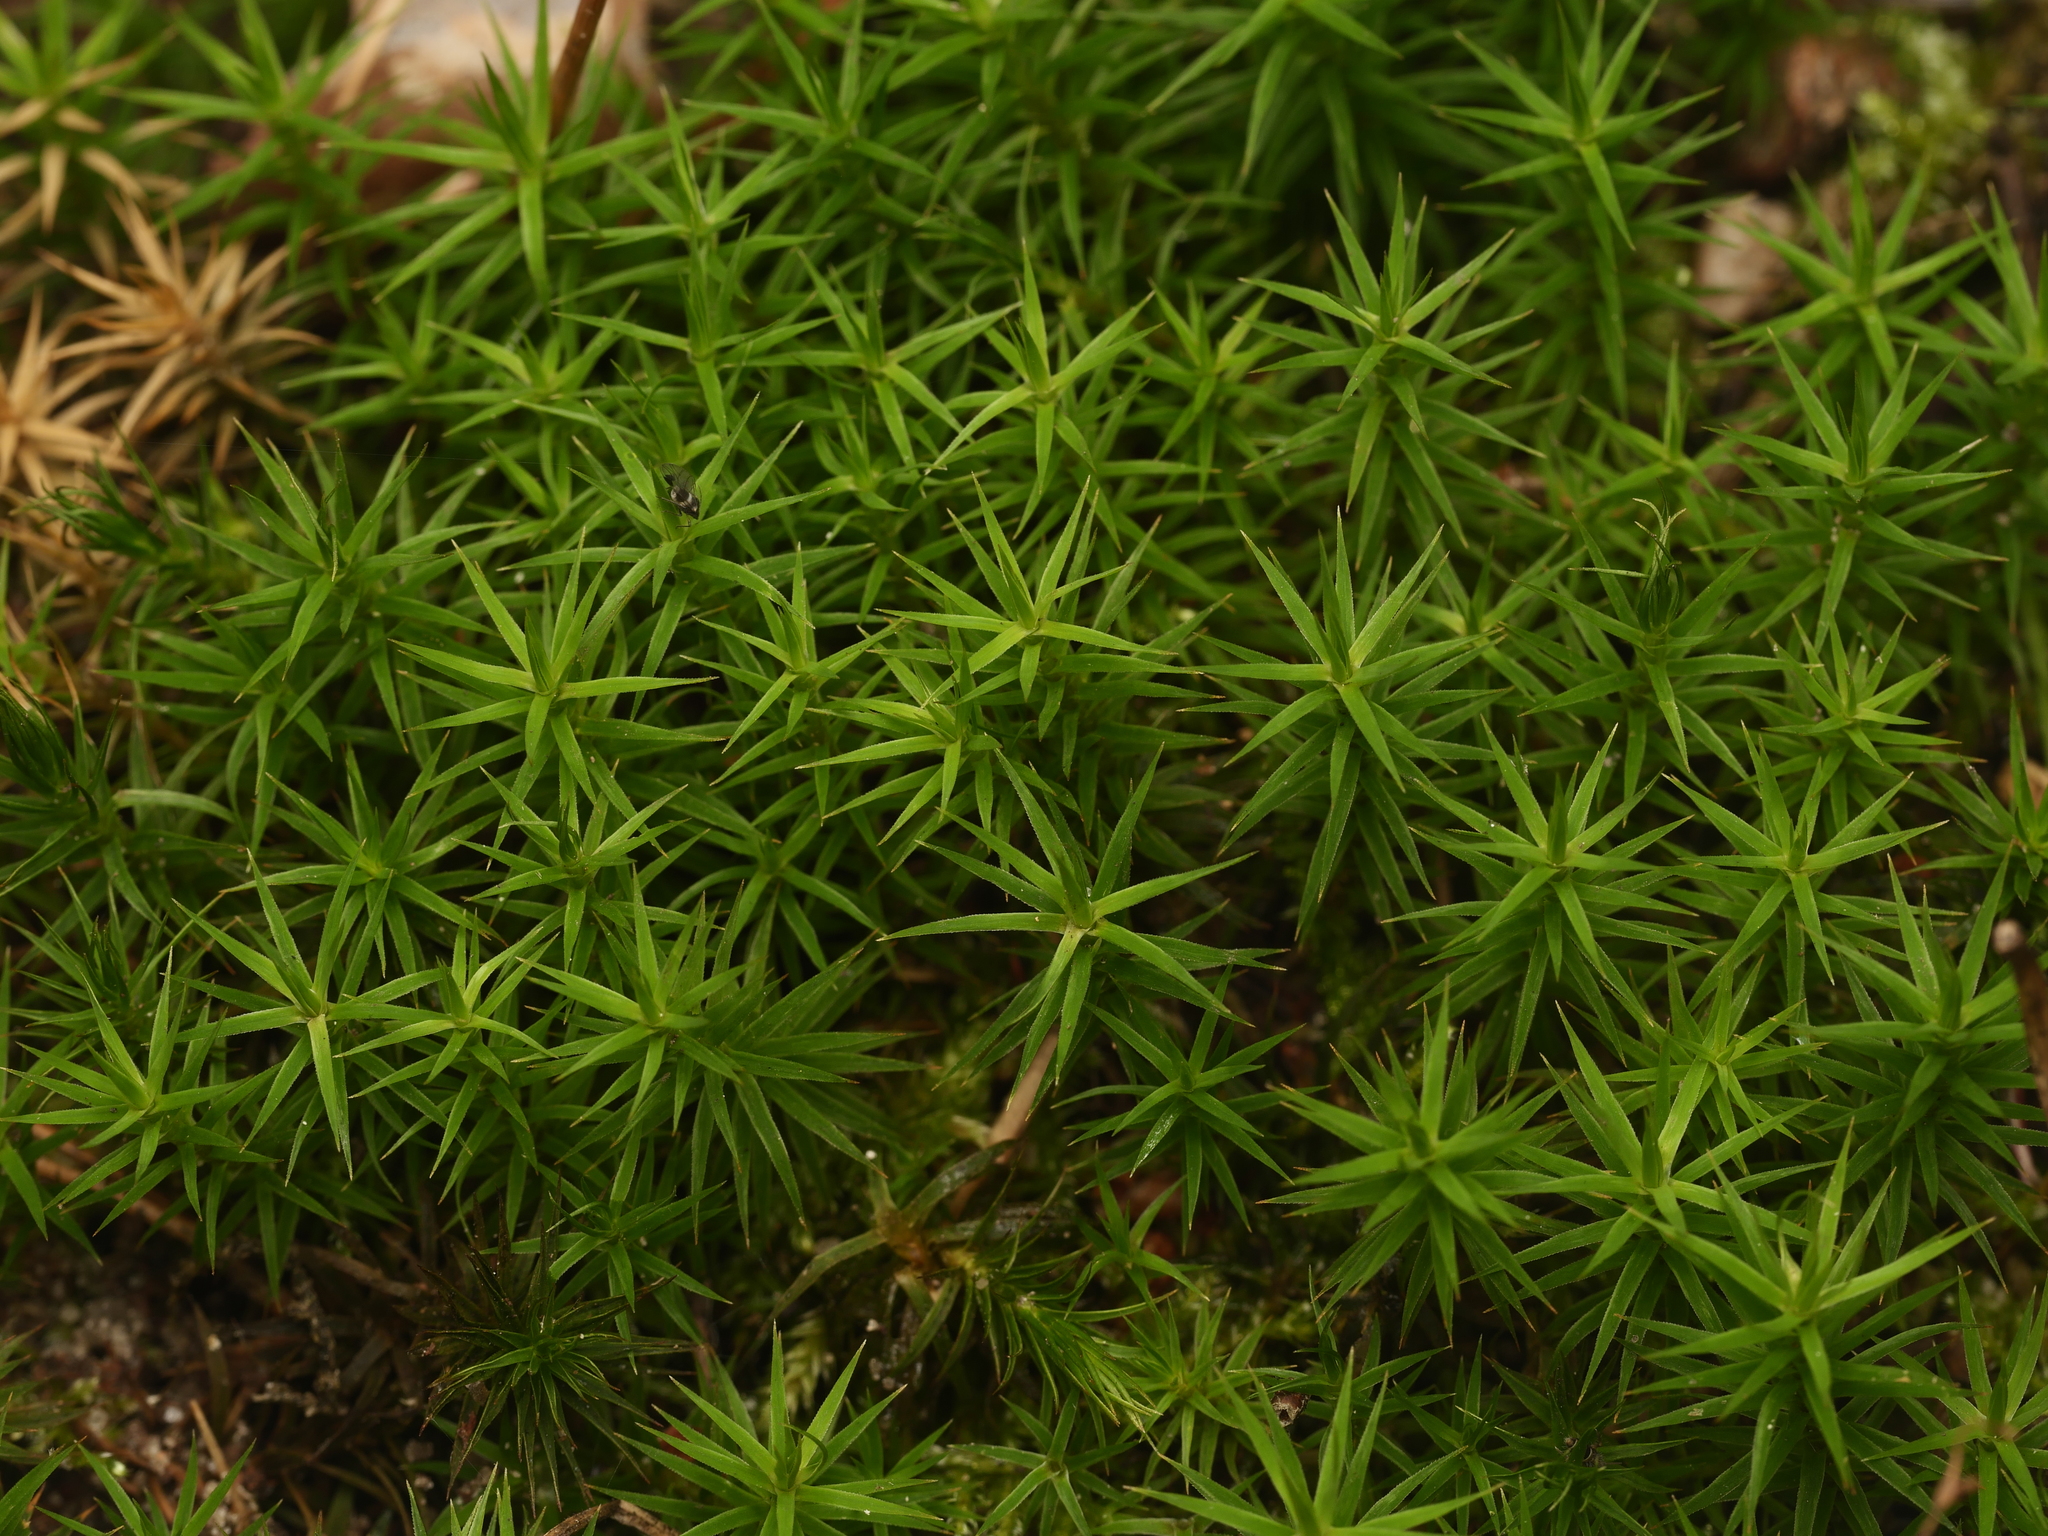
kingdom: Plantae
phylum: Bryophyta
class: Polytrichopsida
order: Polytrichales
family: Polytrichaceae
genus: Polytrichum
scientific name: Polytrichum formosum
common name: Bank haircap moss
